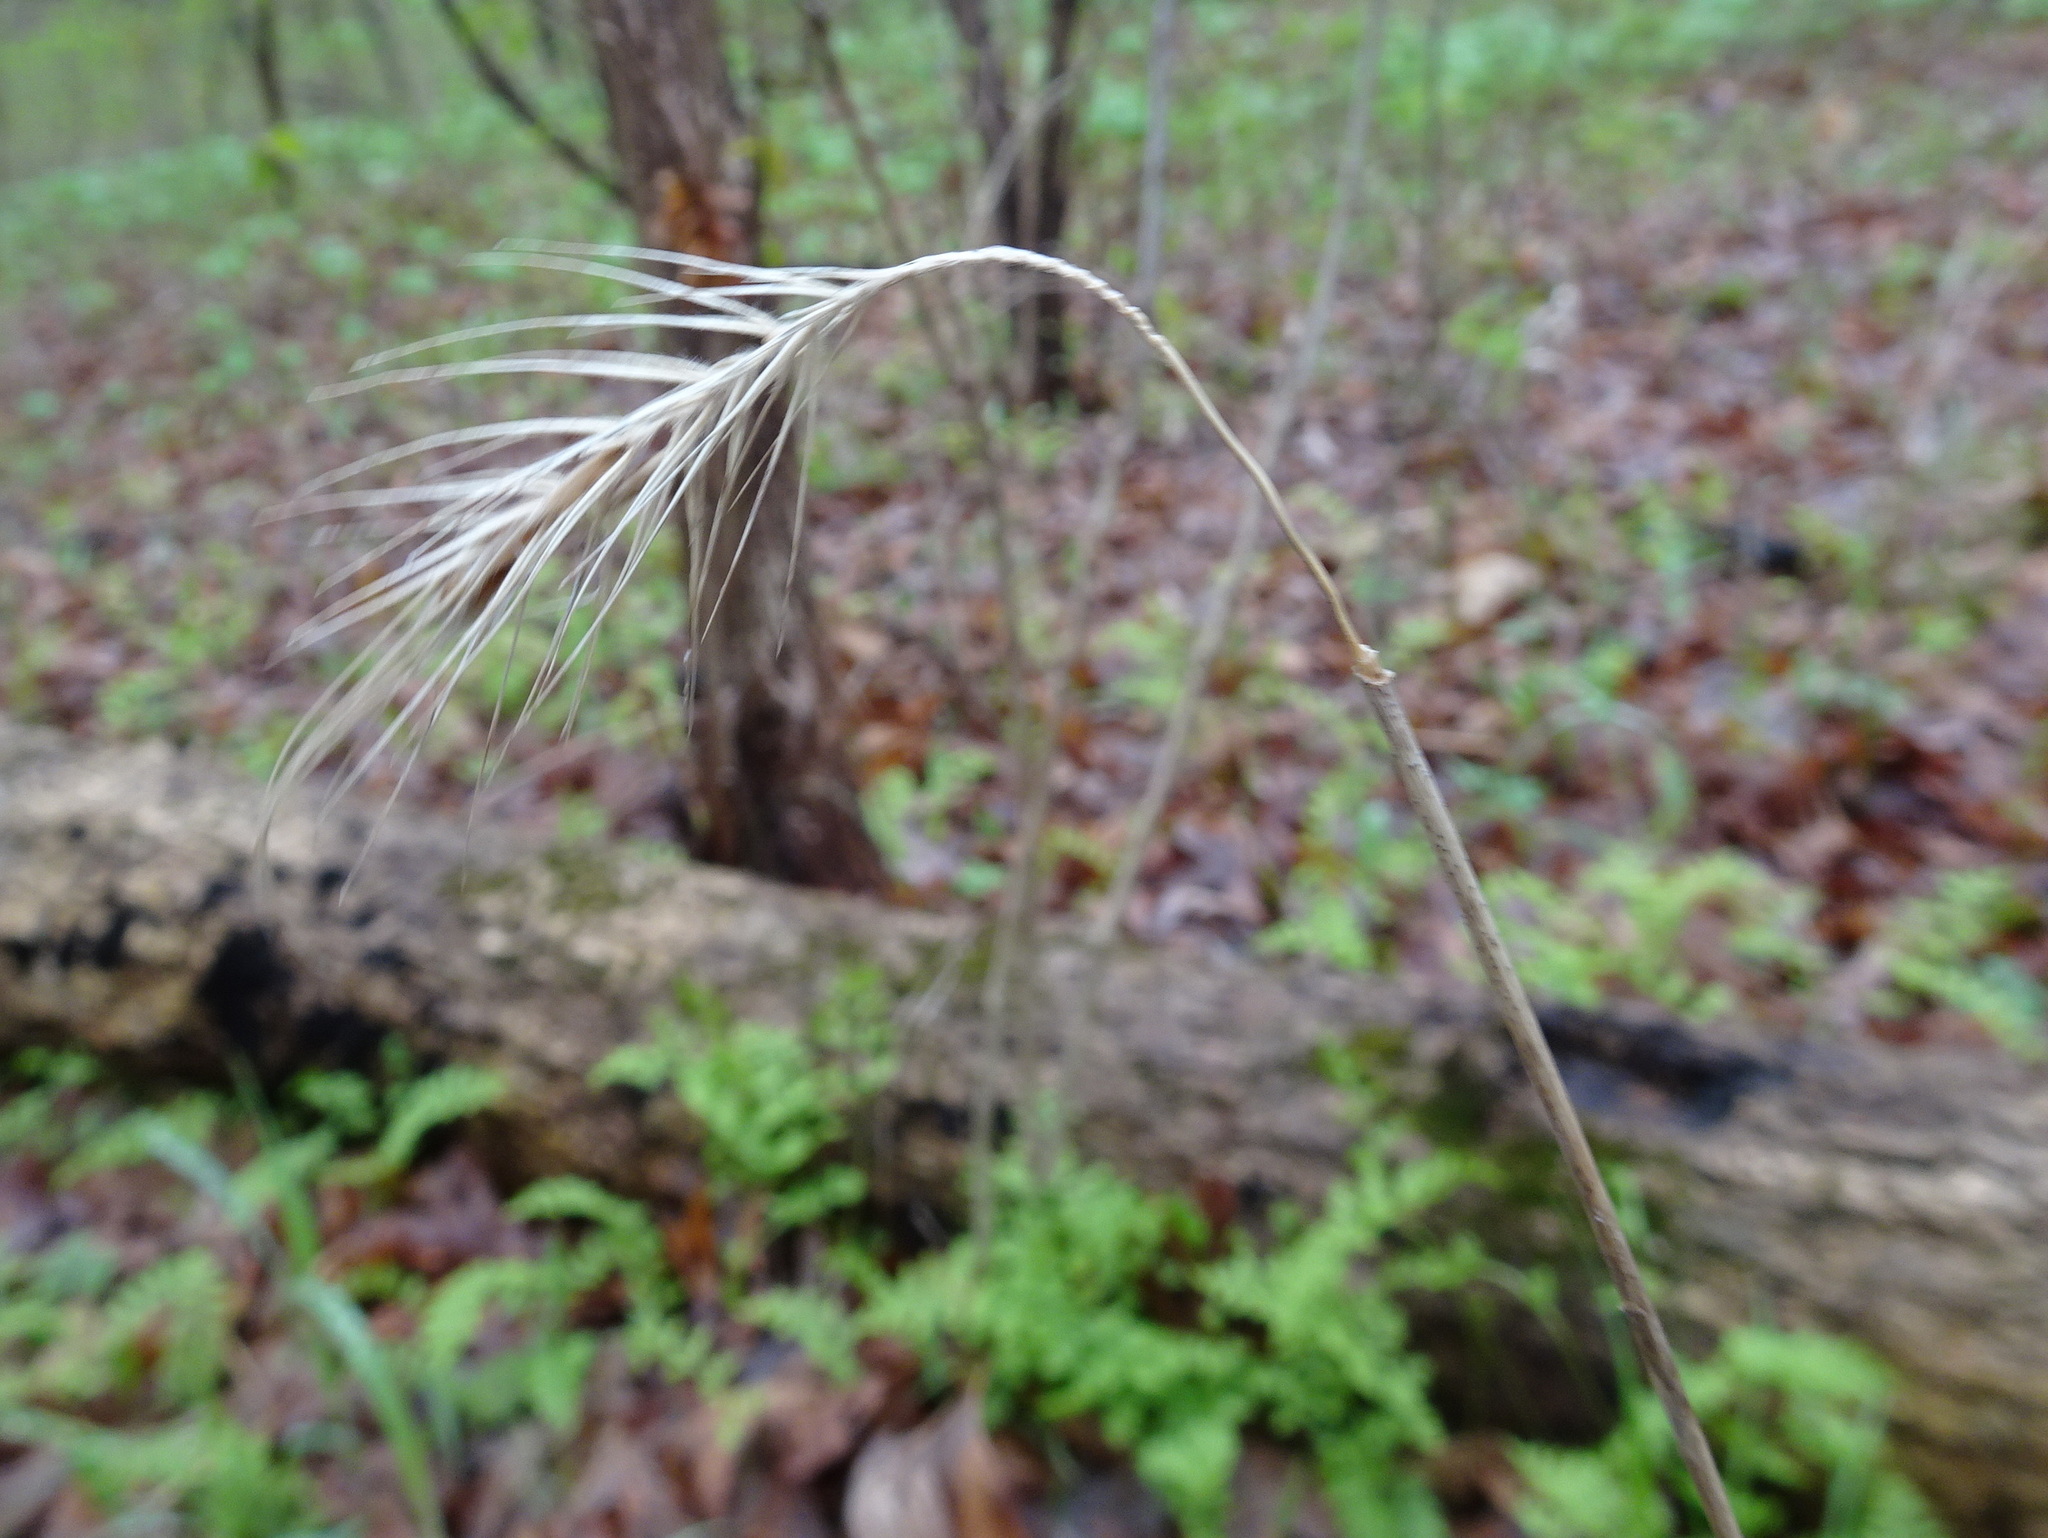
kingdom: Plantae
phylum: Tracheophyta
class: Liliopsida
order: Poales
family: Poaceae
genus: Elymus
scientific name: Elymus villosus
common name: Downy wild rye
